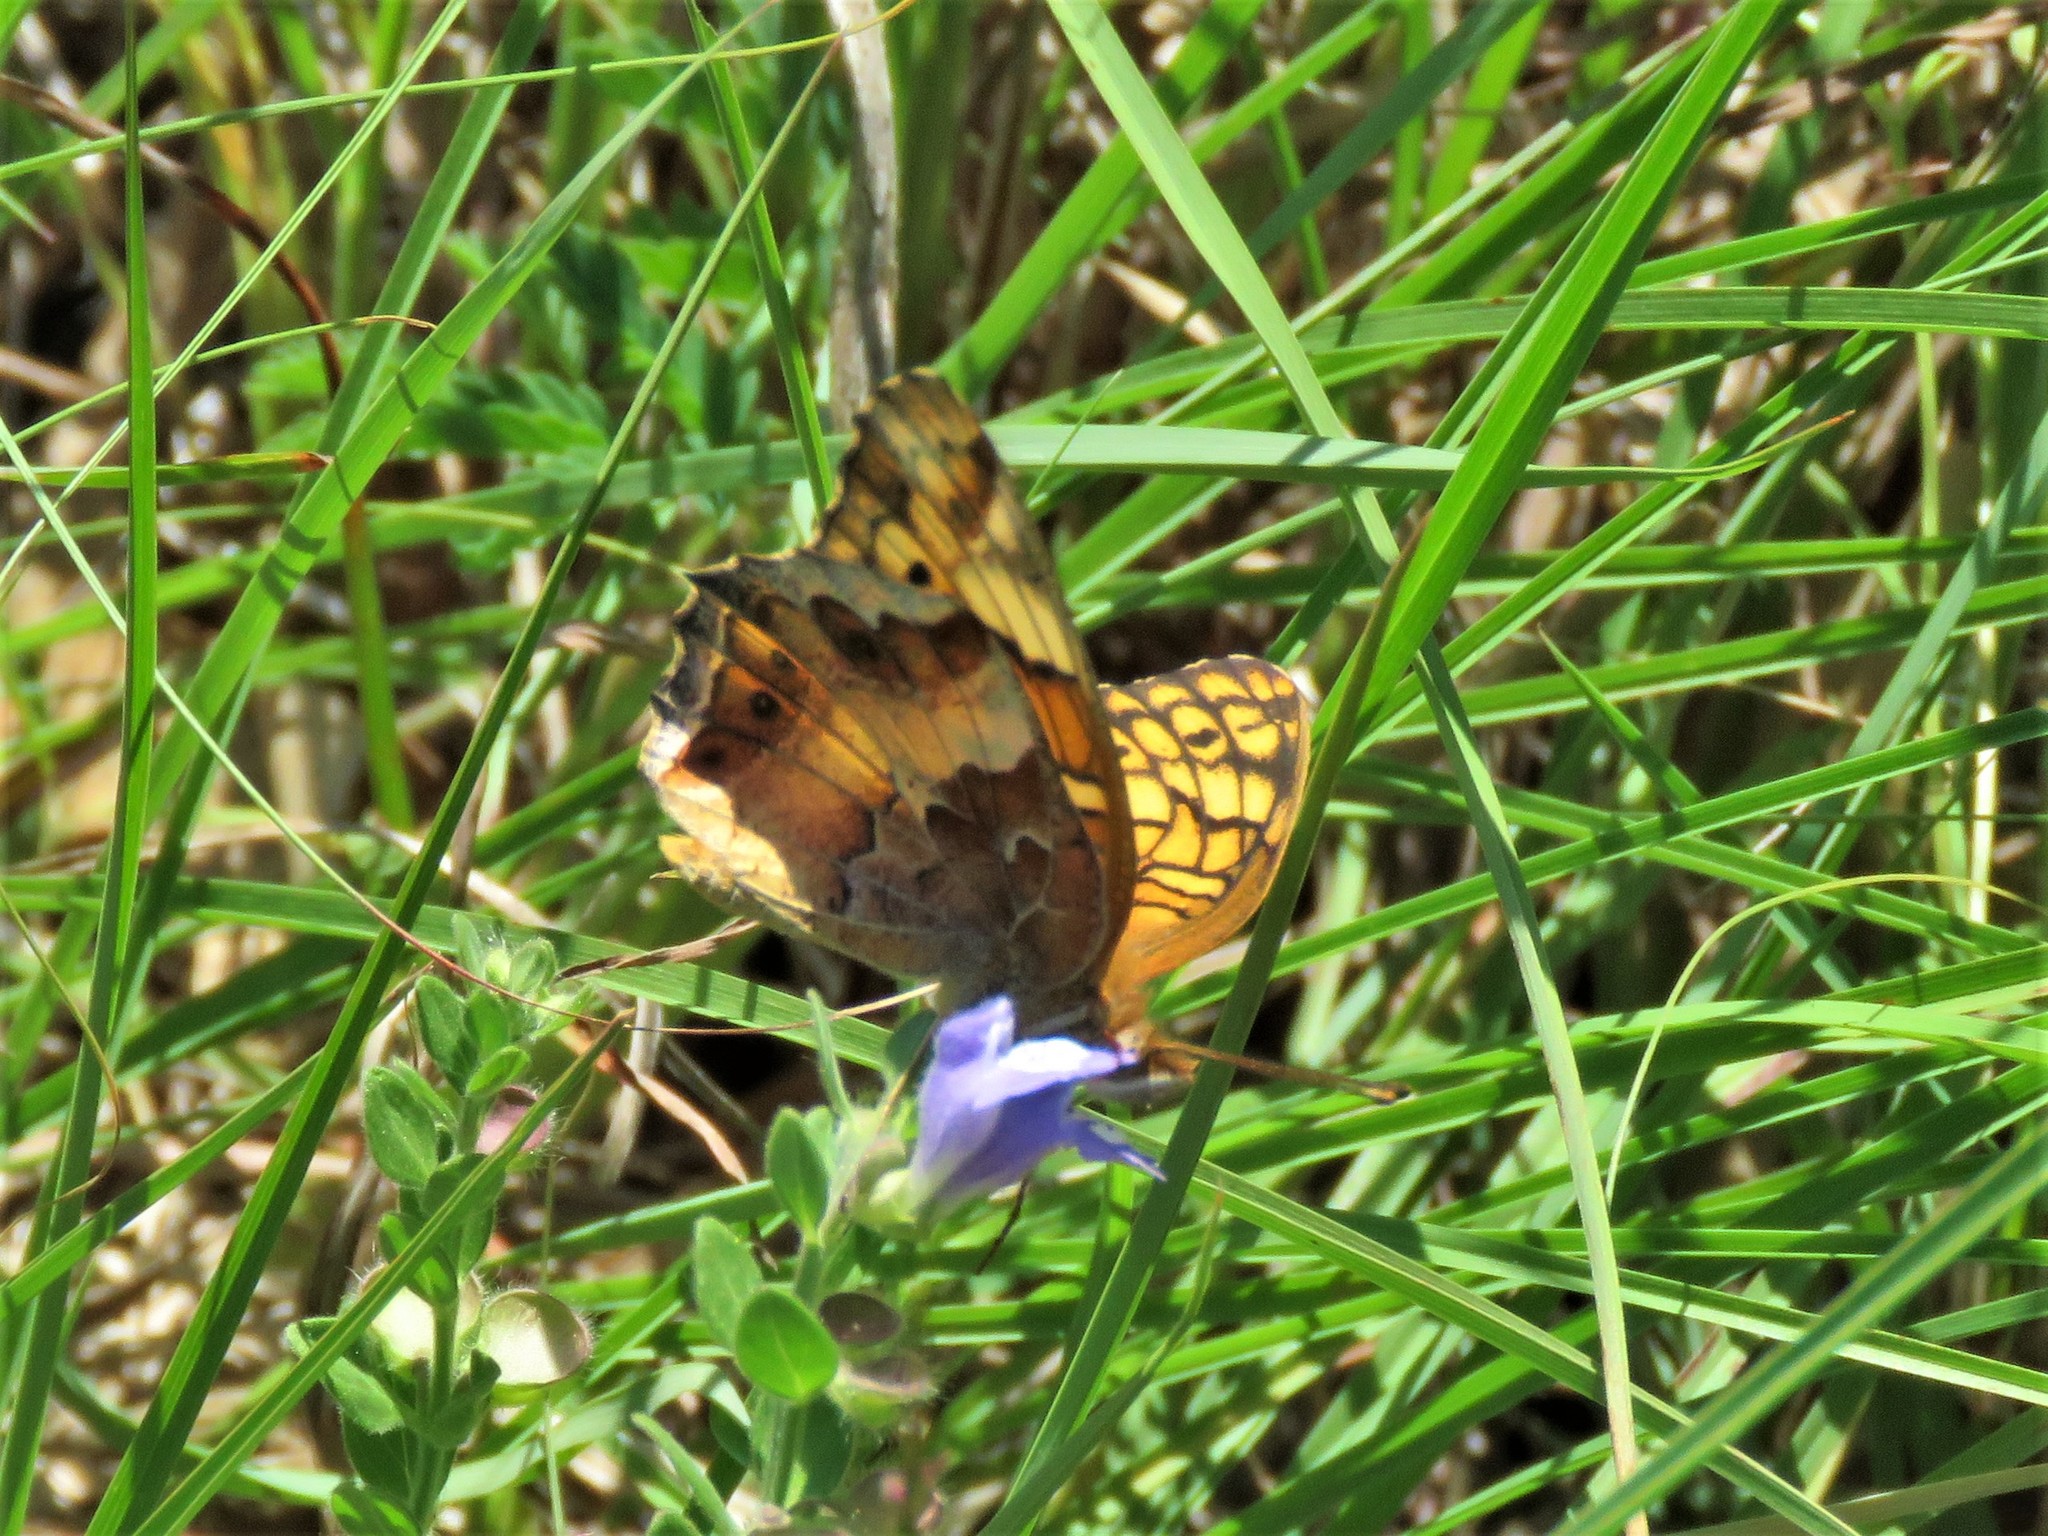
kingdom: Animalia
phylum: Arthropoda
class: Insecta
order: Lepidoptera
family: Nymphalidae
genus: Euptoieta
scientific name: Euptoieta claudia
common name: Variegated fritillary
